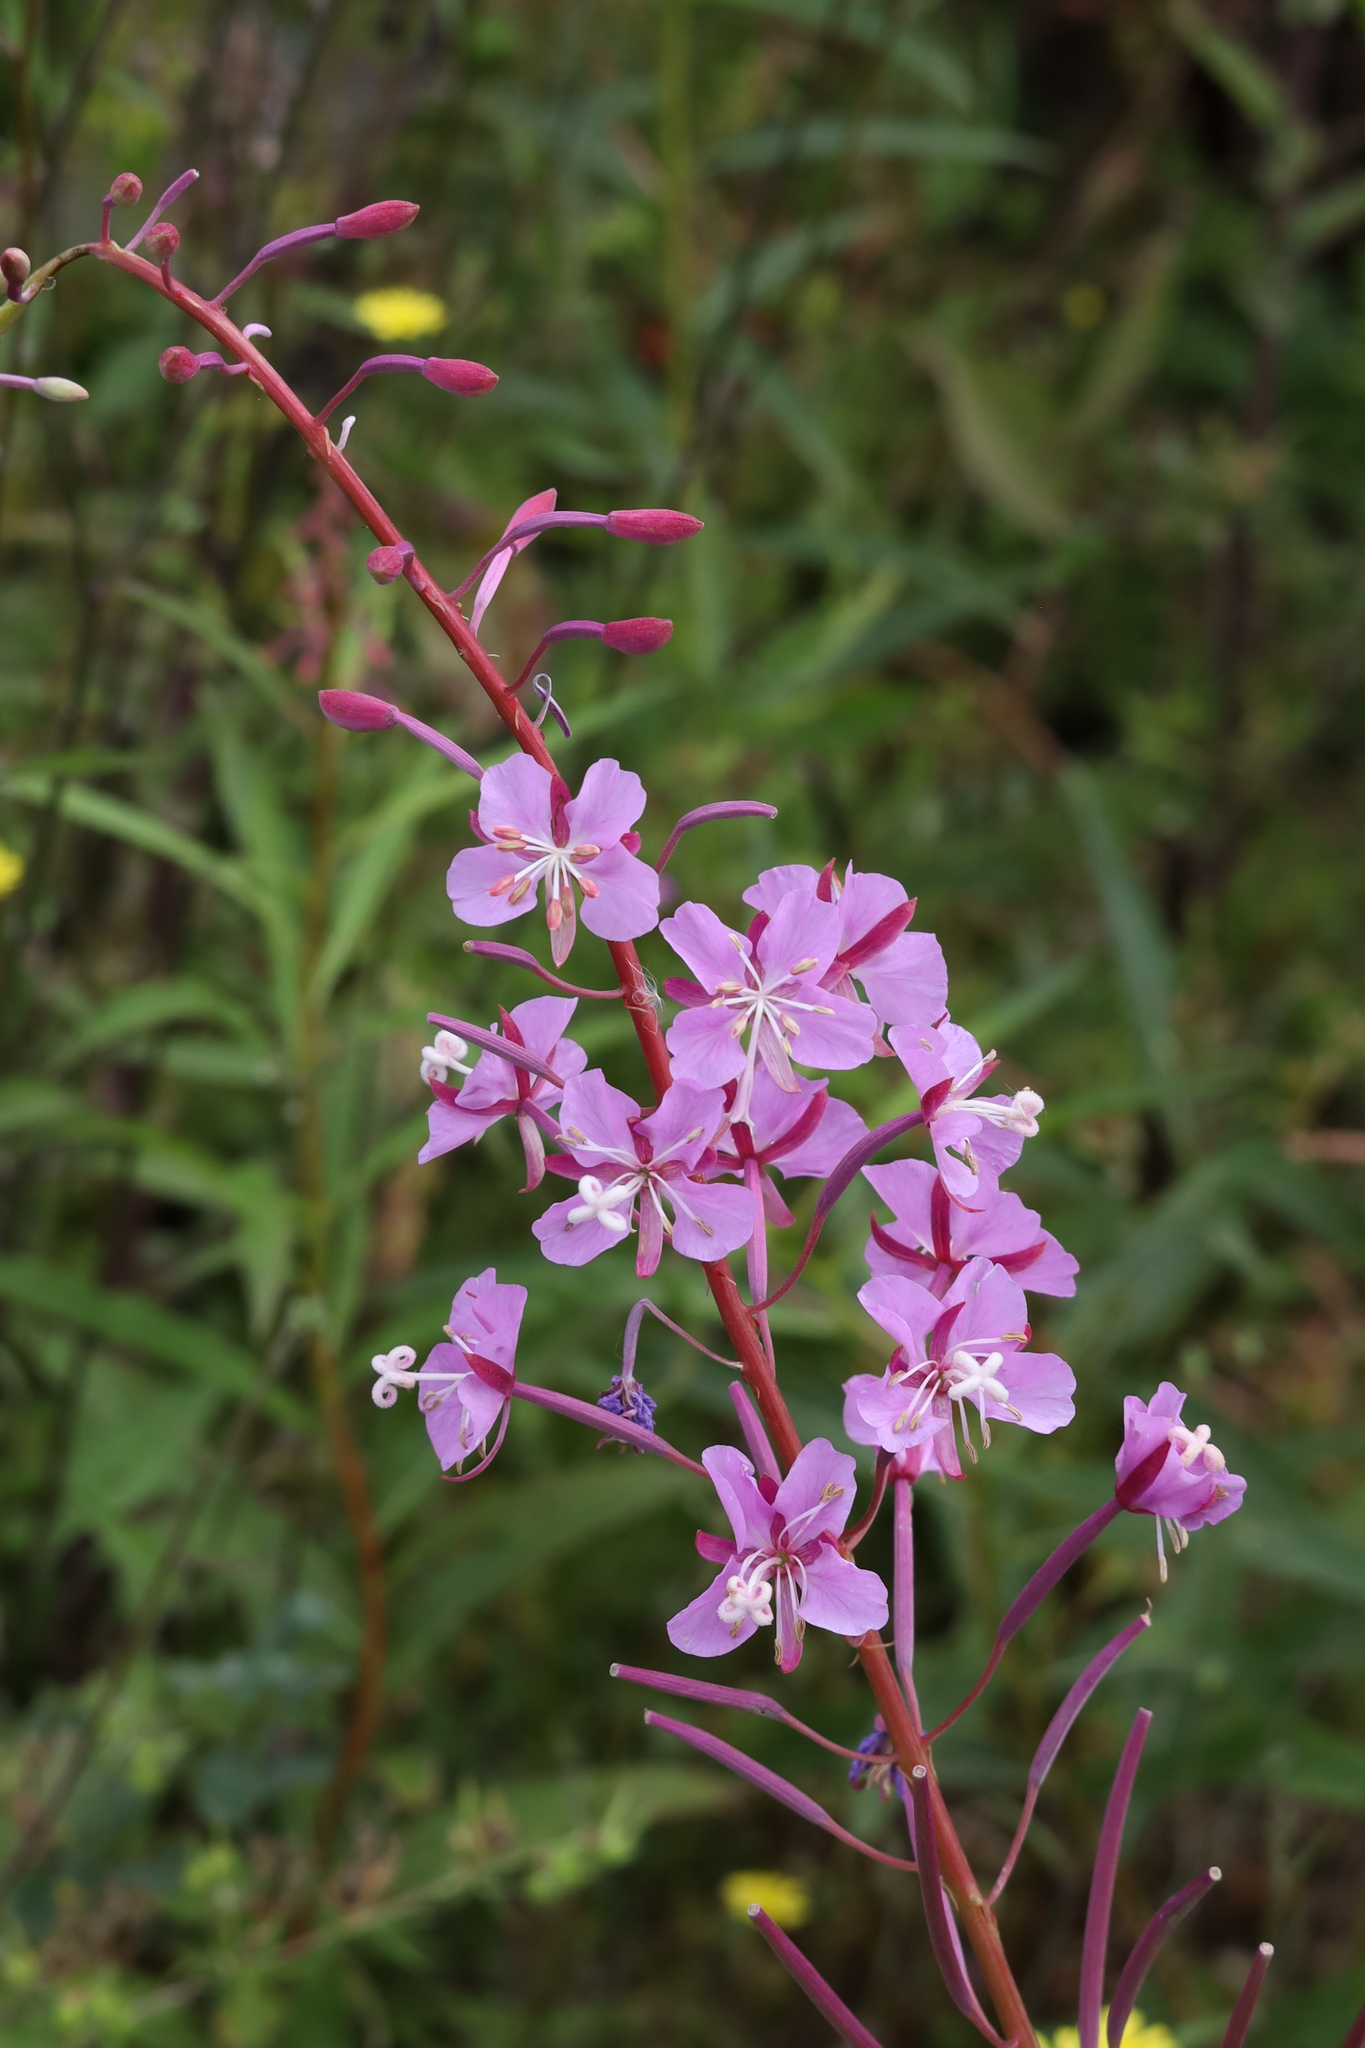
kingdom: Plantae
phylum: Tracheophyta
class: Magnoliopsida
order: Myrtales
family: Onagraceae
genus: Chamaenerion
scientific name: Chamaenerion angustifolium
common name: Fireweed
